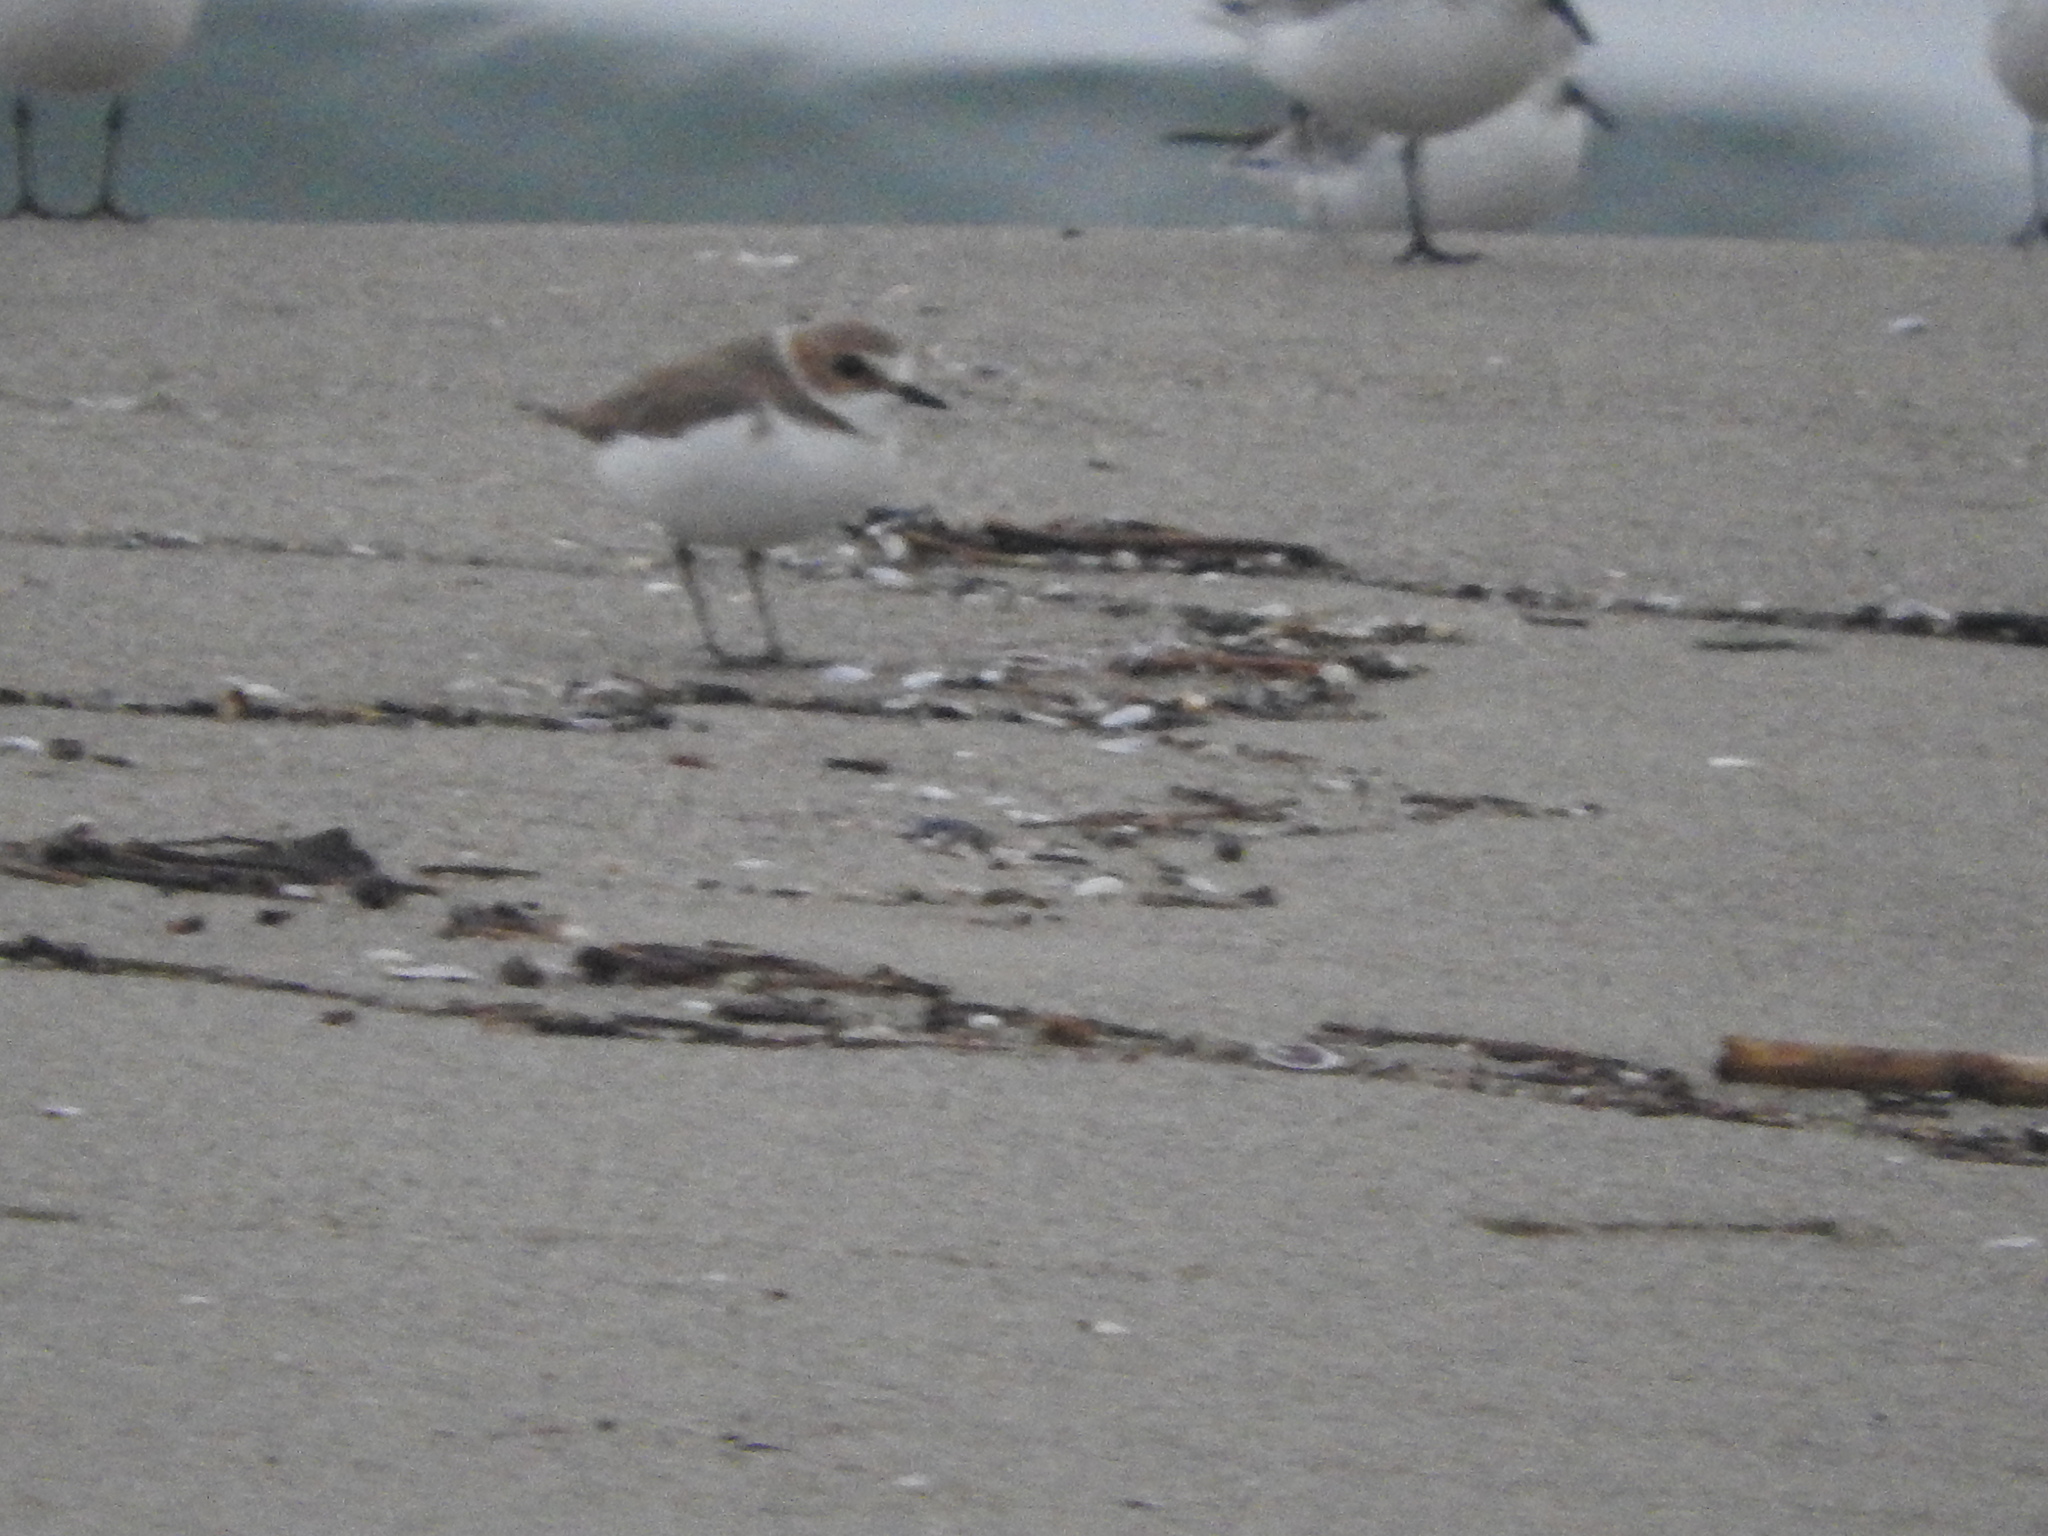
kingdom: Animalia
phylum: Chordata
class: Aves
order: Charadriiformes
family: Charadriidae
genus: Charadrius
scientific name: Charadrius alexandrinus
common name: Kentish plover
